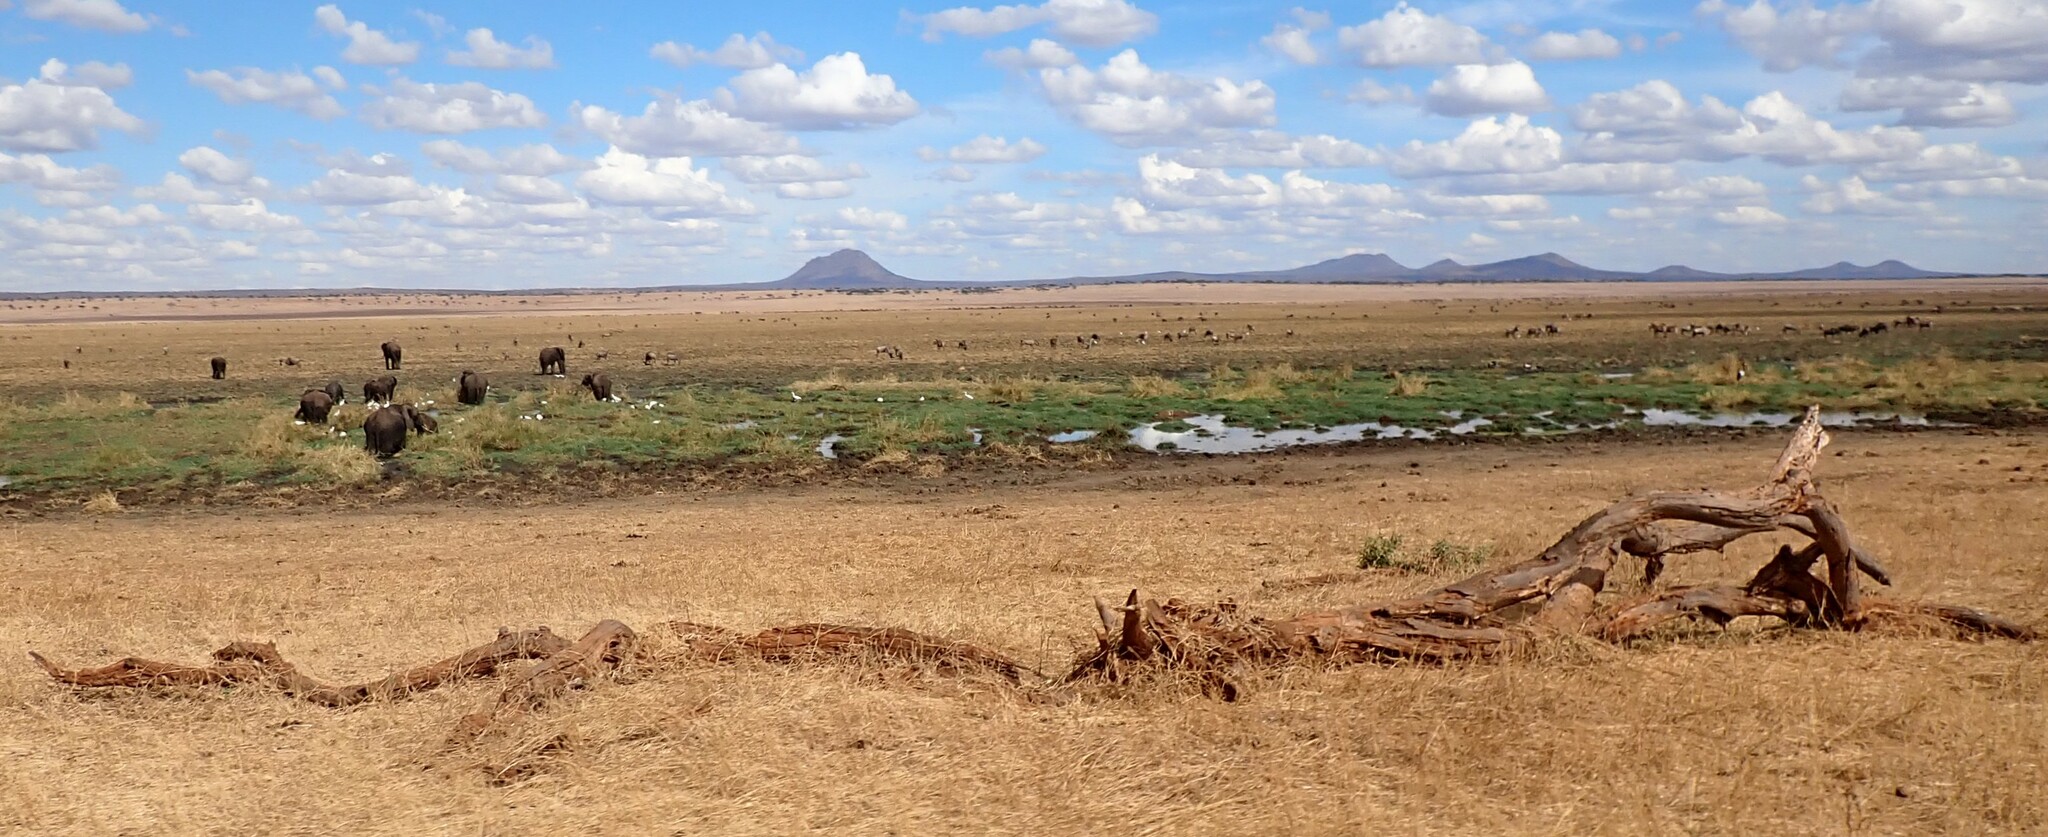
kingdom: Animalia
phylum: Chordata
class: Mammalia
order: Proboscidea
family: Elephantidae
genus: Loxodonta
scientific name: Loxodonta africana
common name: African elephant
